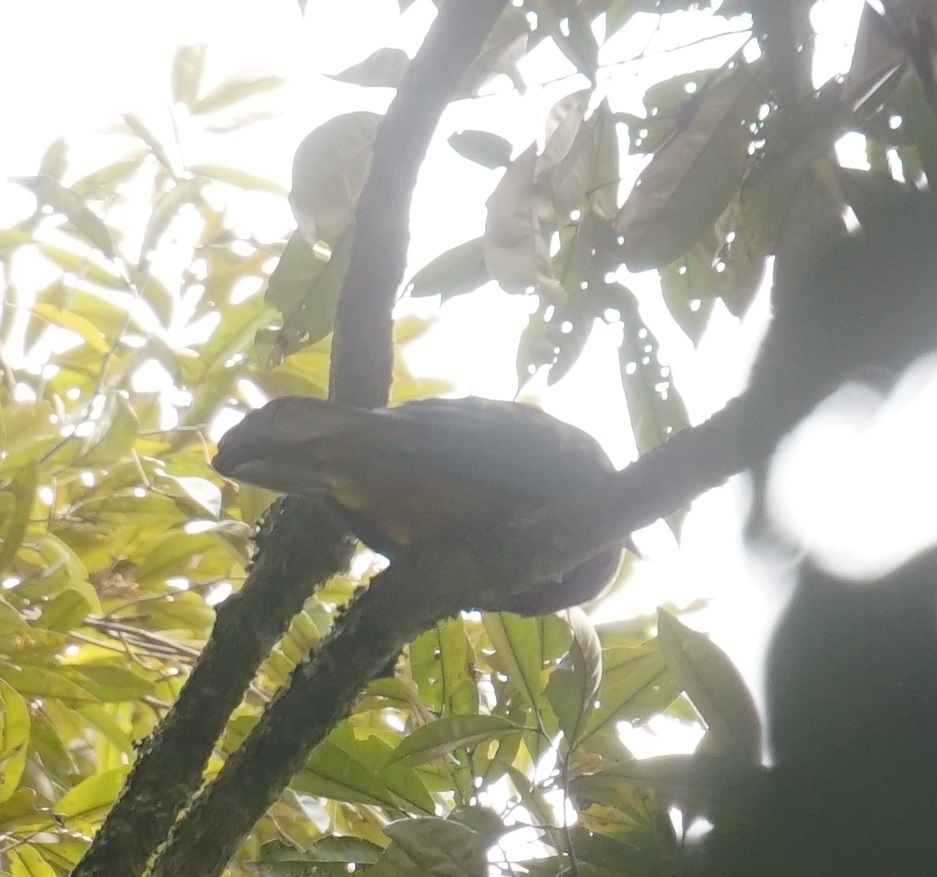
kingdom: Animalia
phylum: Chordata
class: Aves
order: Columbiformes
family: Columbidae
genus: Ptilinopus
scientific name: Ptilinopus magnificus
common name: Wompoo fruit dove
